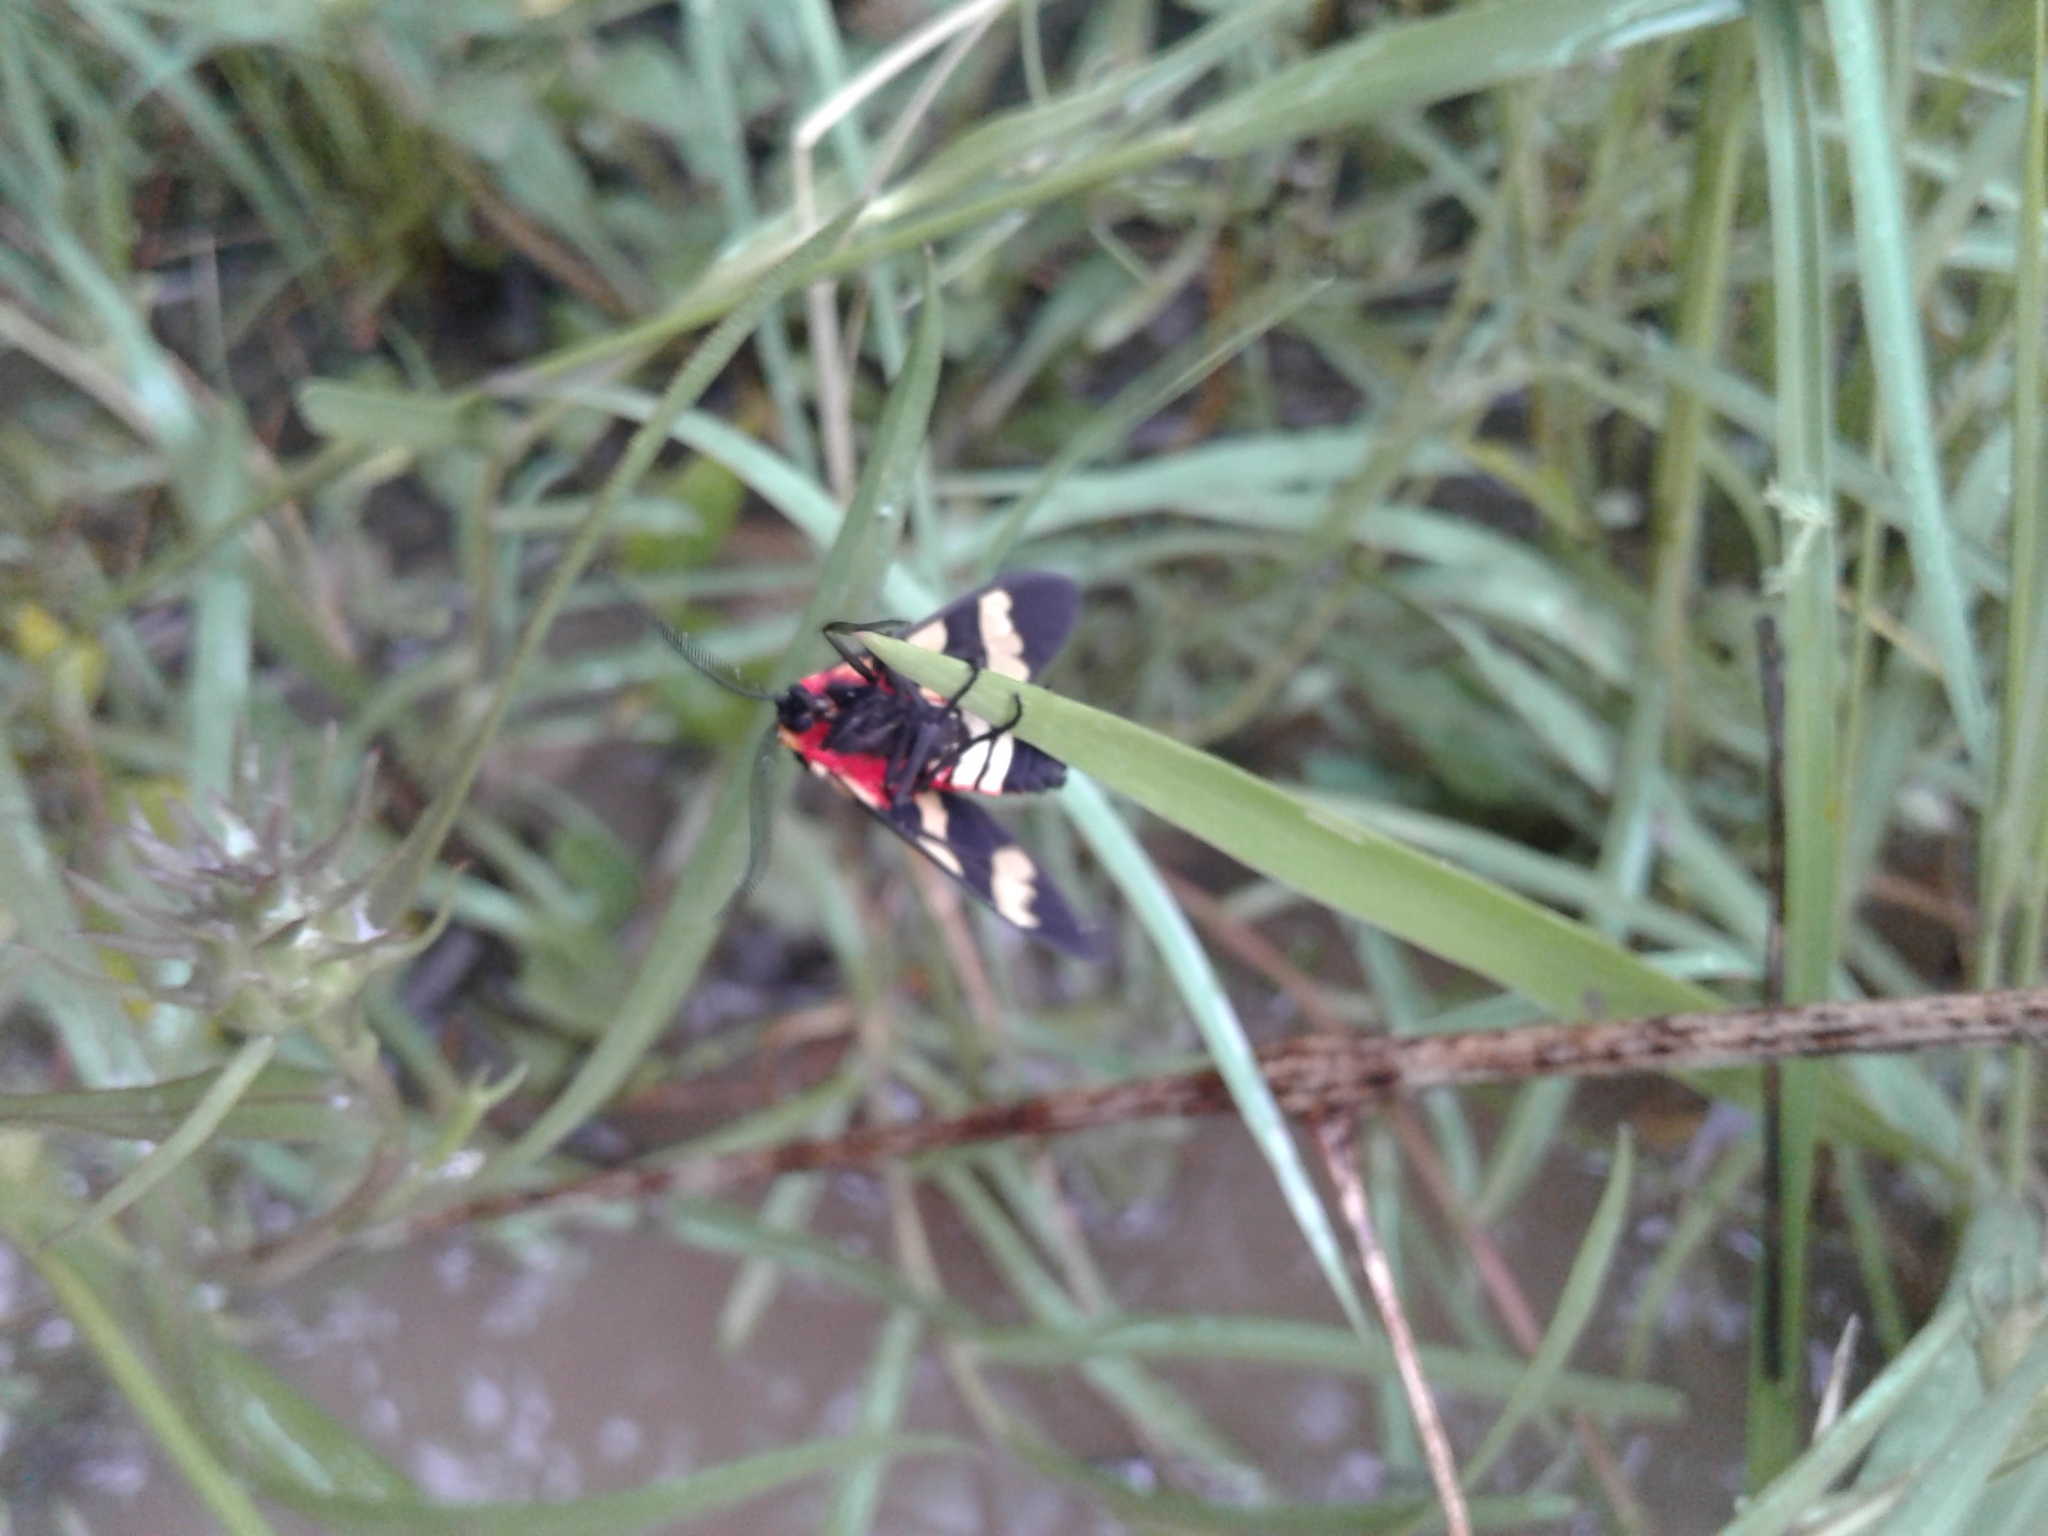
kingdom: Animalia
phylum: Arthropoda
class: Insecta
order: Lepidoptera
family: Erebidae
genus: Eurata
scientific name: Eurata patagiata
